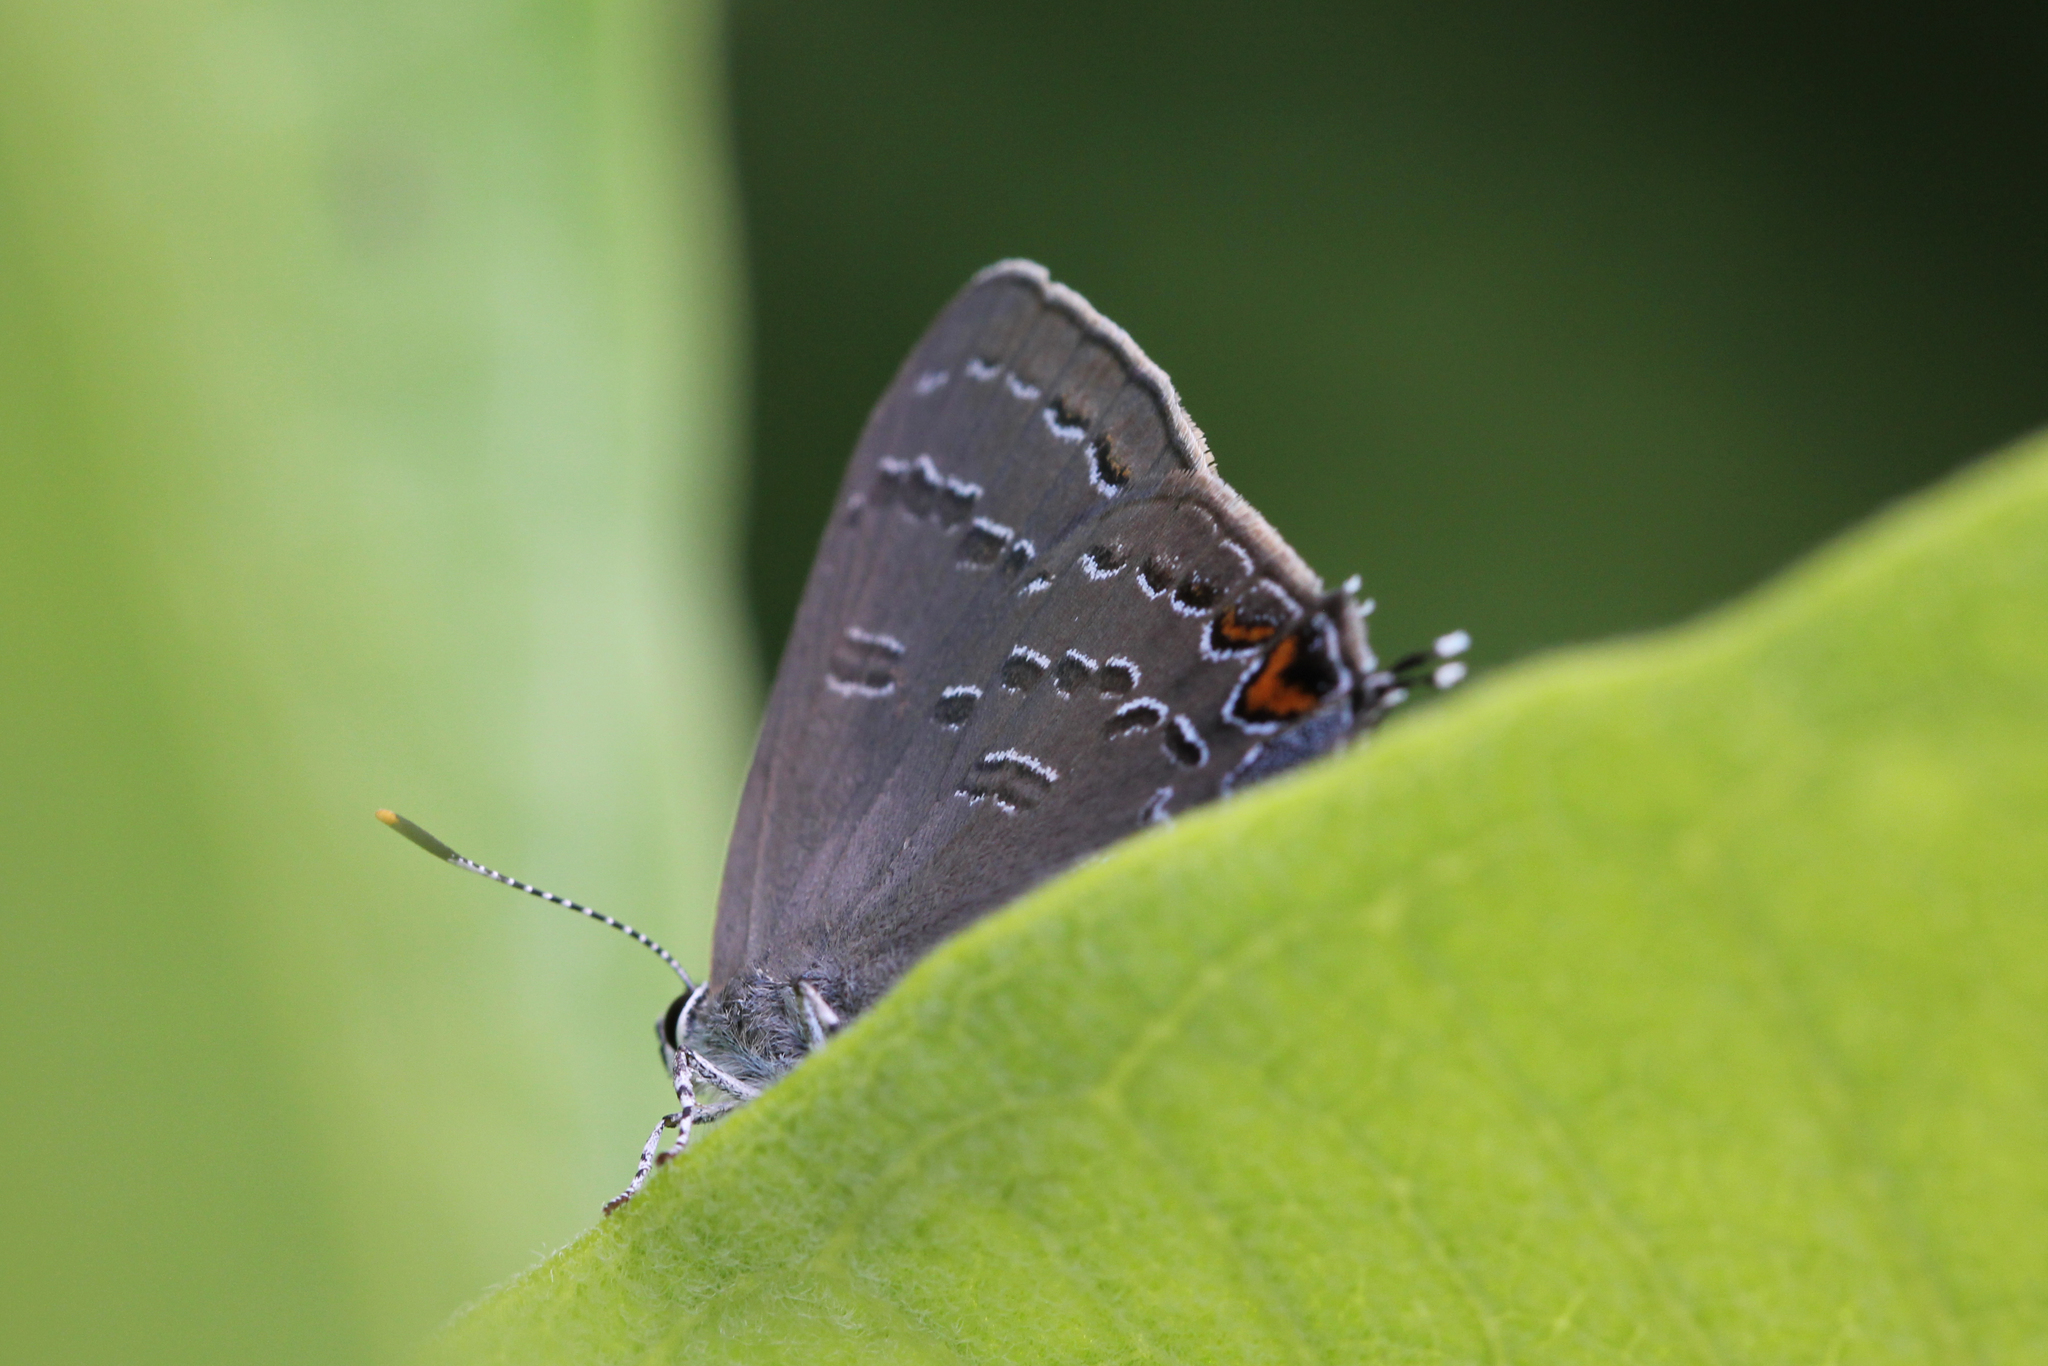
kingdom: Animalia
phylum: Arthropoda
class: Insecta
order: Lepidoptera
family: Lycaenidae
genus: Satyrium
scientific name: Satyrium calanus
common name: Banded hairstreak
